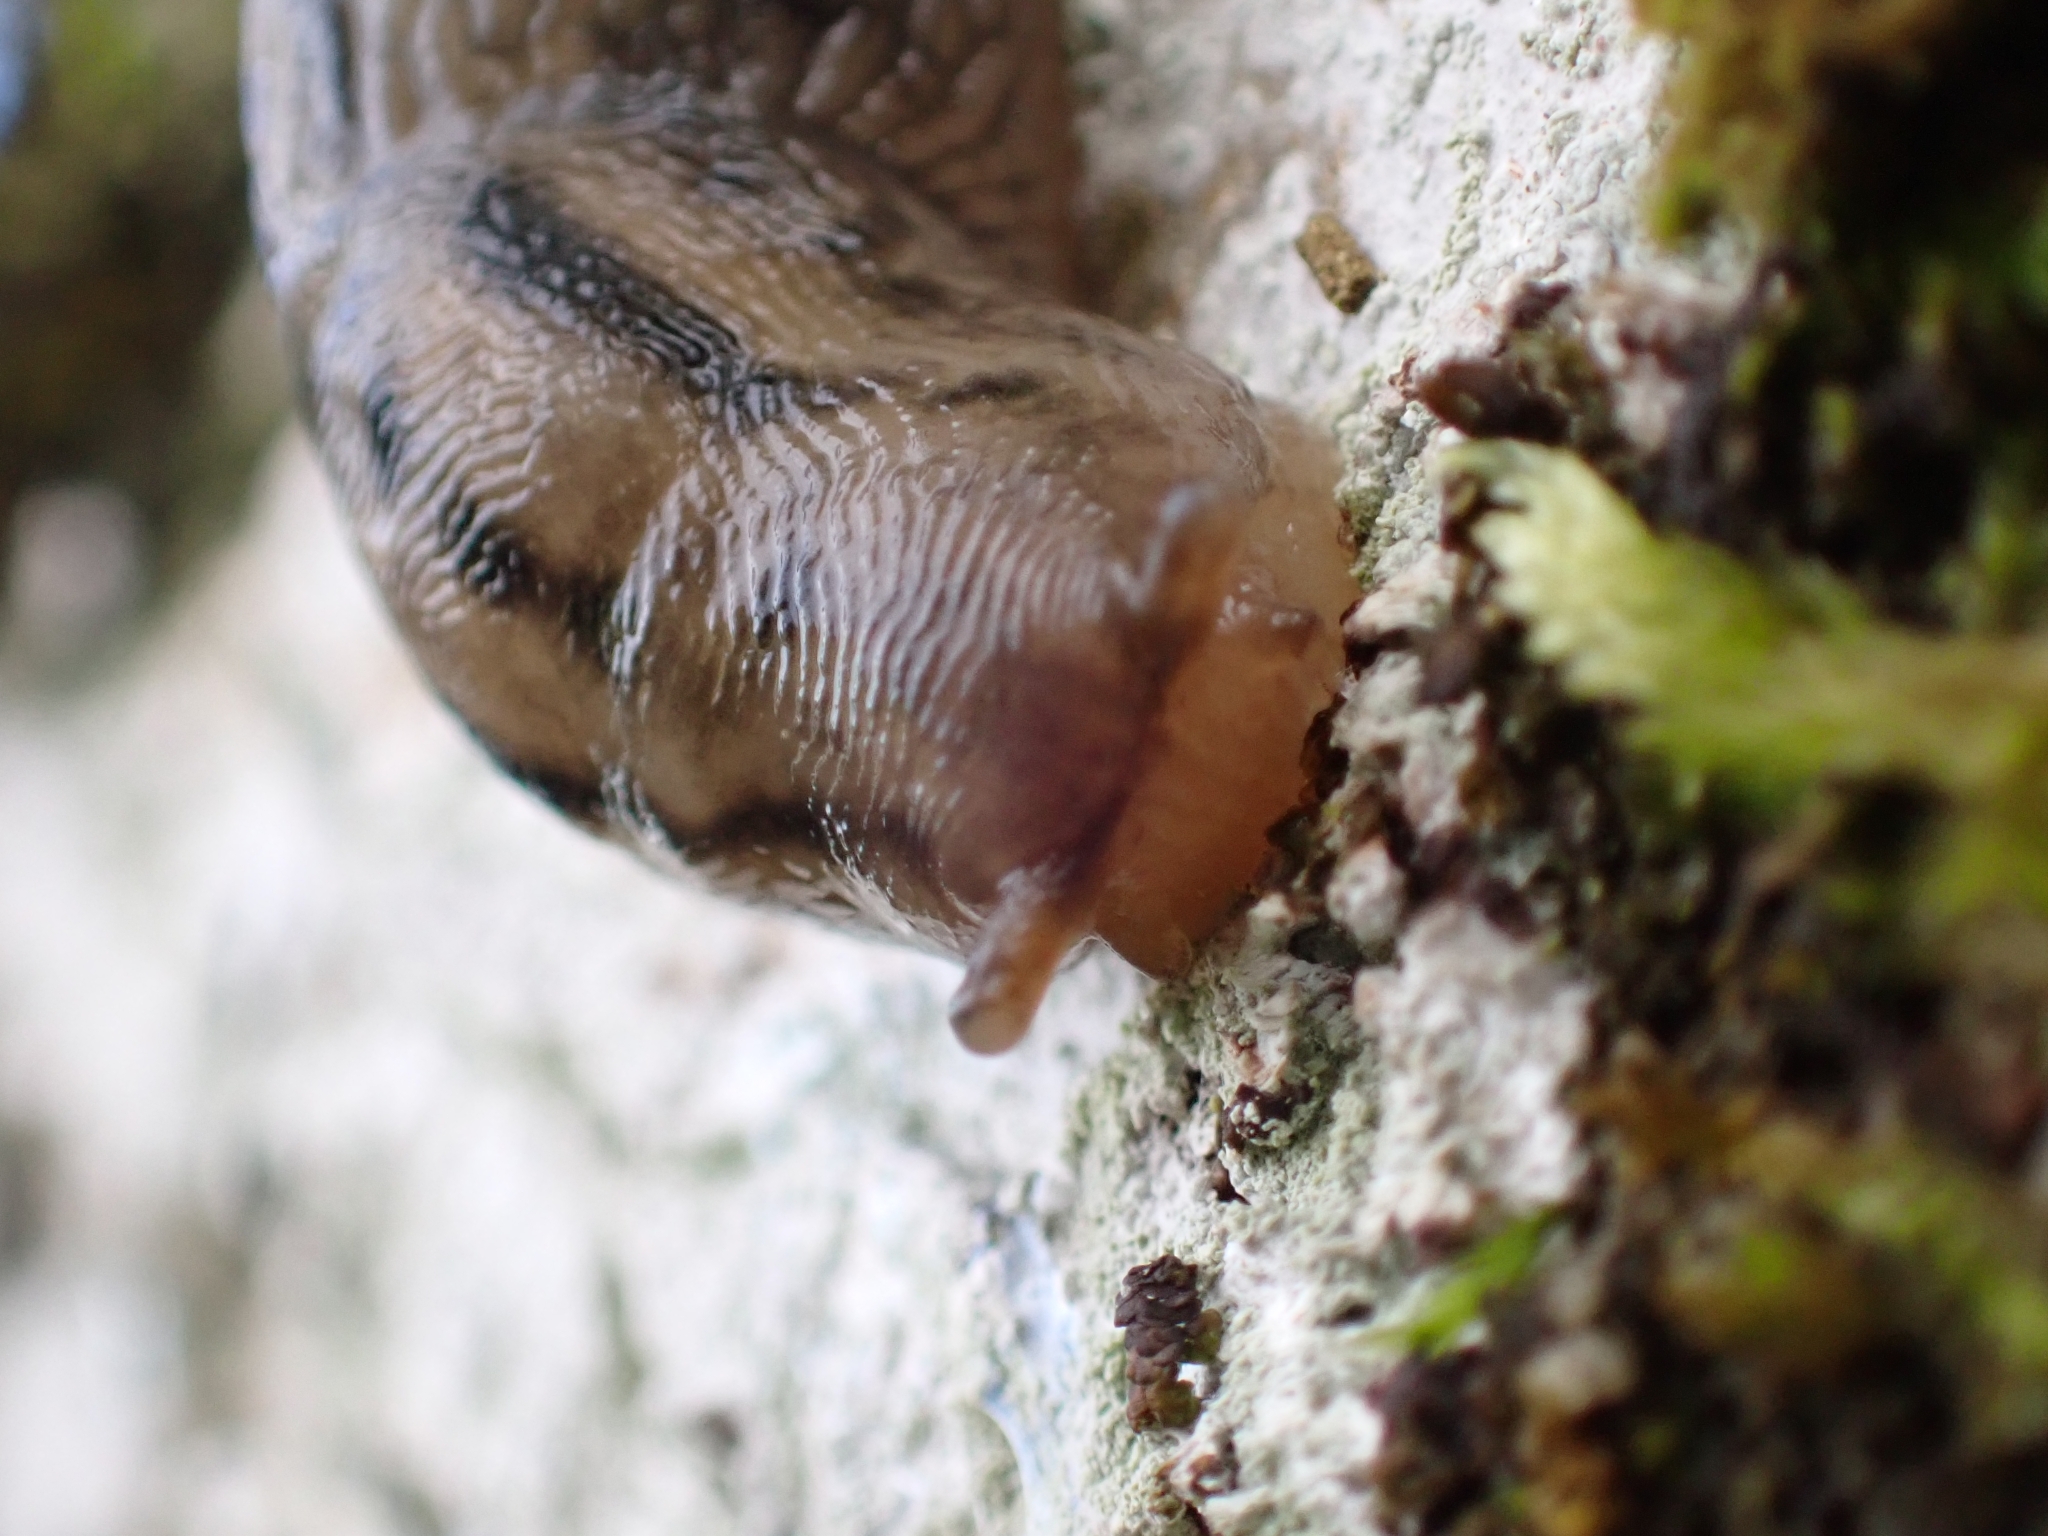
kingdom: Animalia
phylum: Mollusca
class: Gastropoda
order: Stylommatophora
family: Limacidae
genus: Lehmannia
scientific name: Lehmannia marginata
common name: Tree slug
